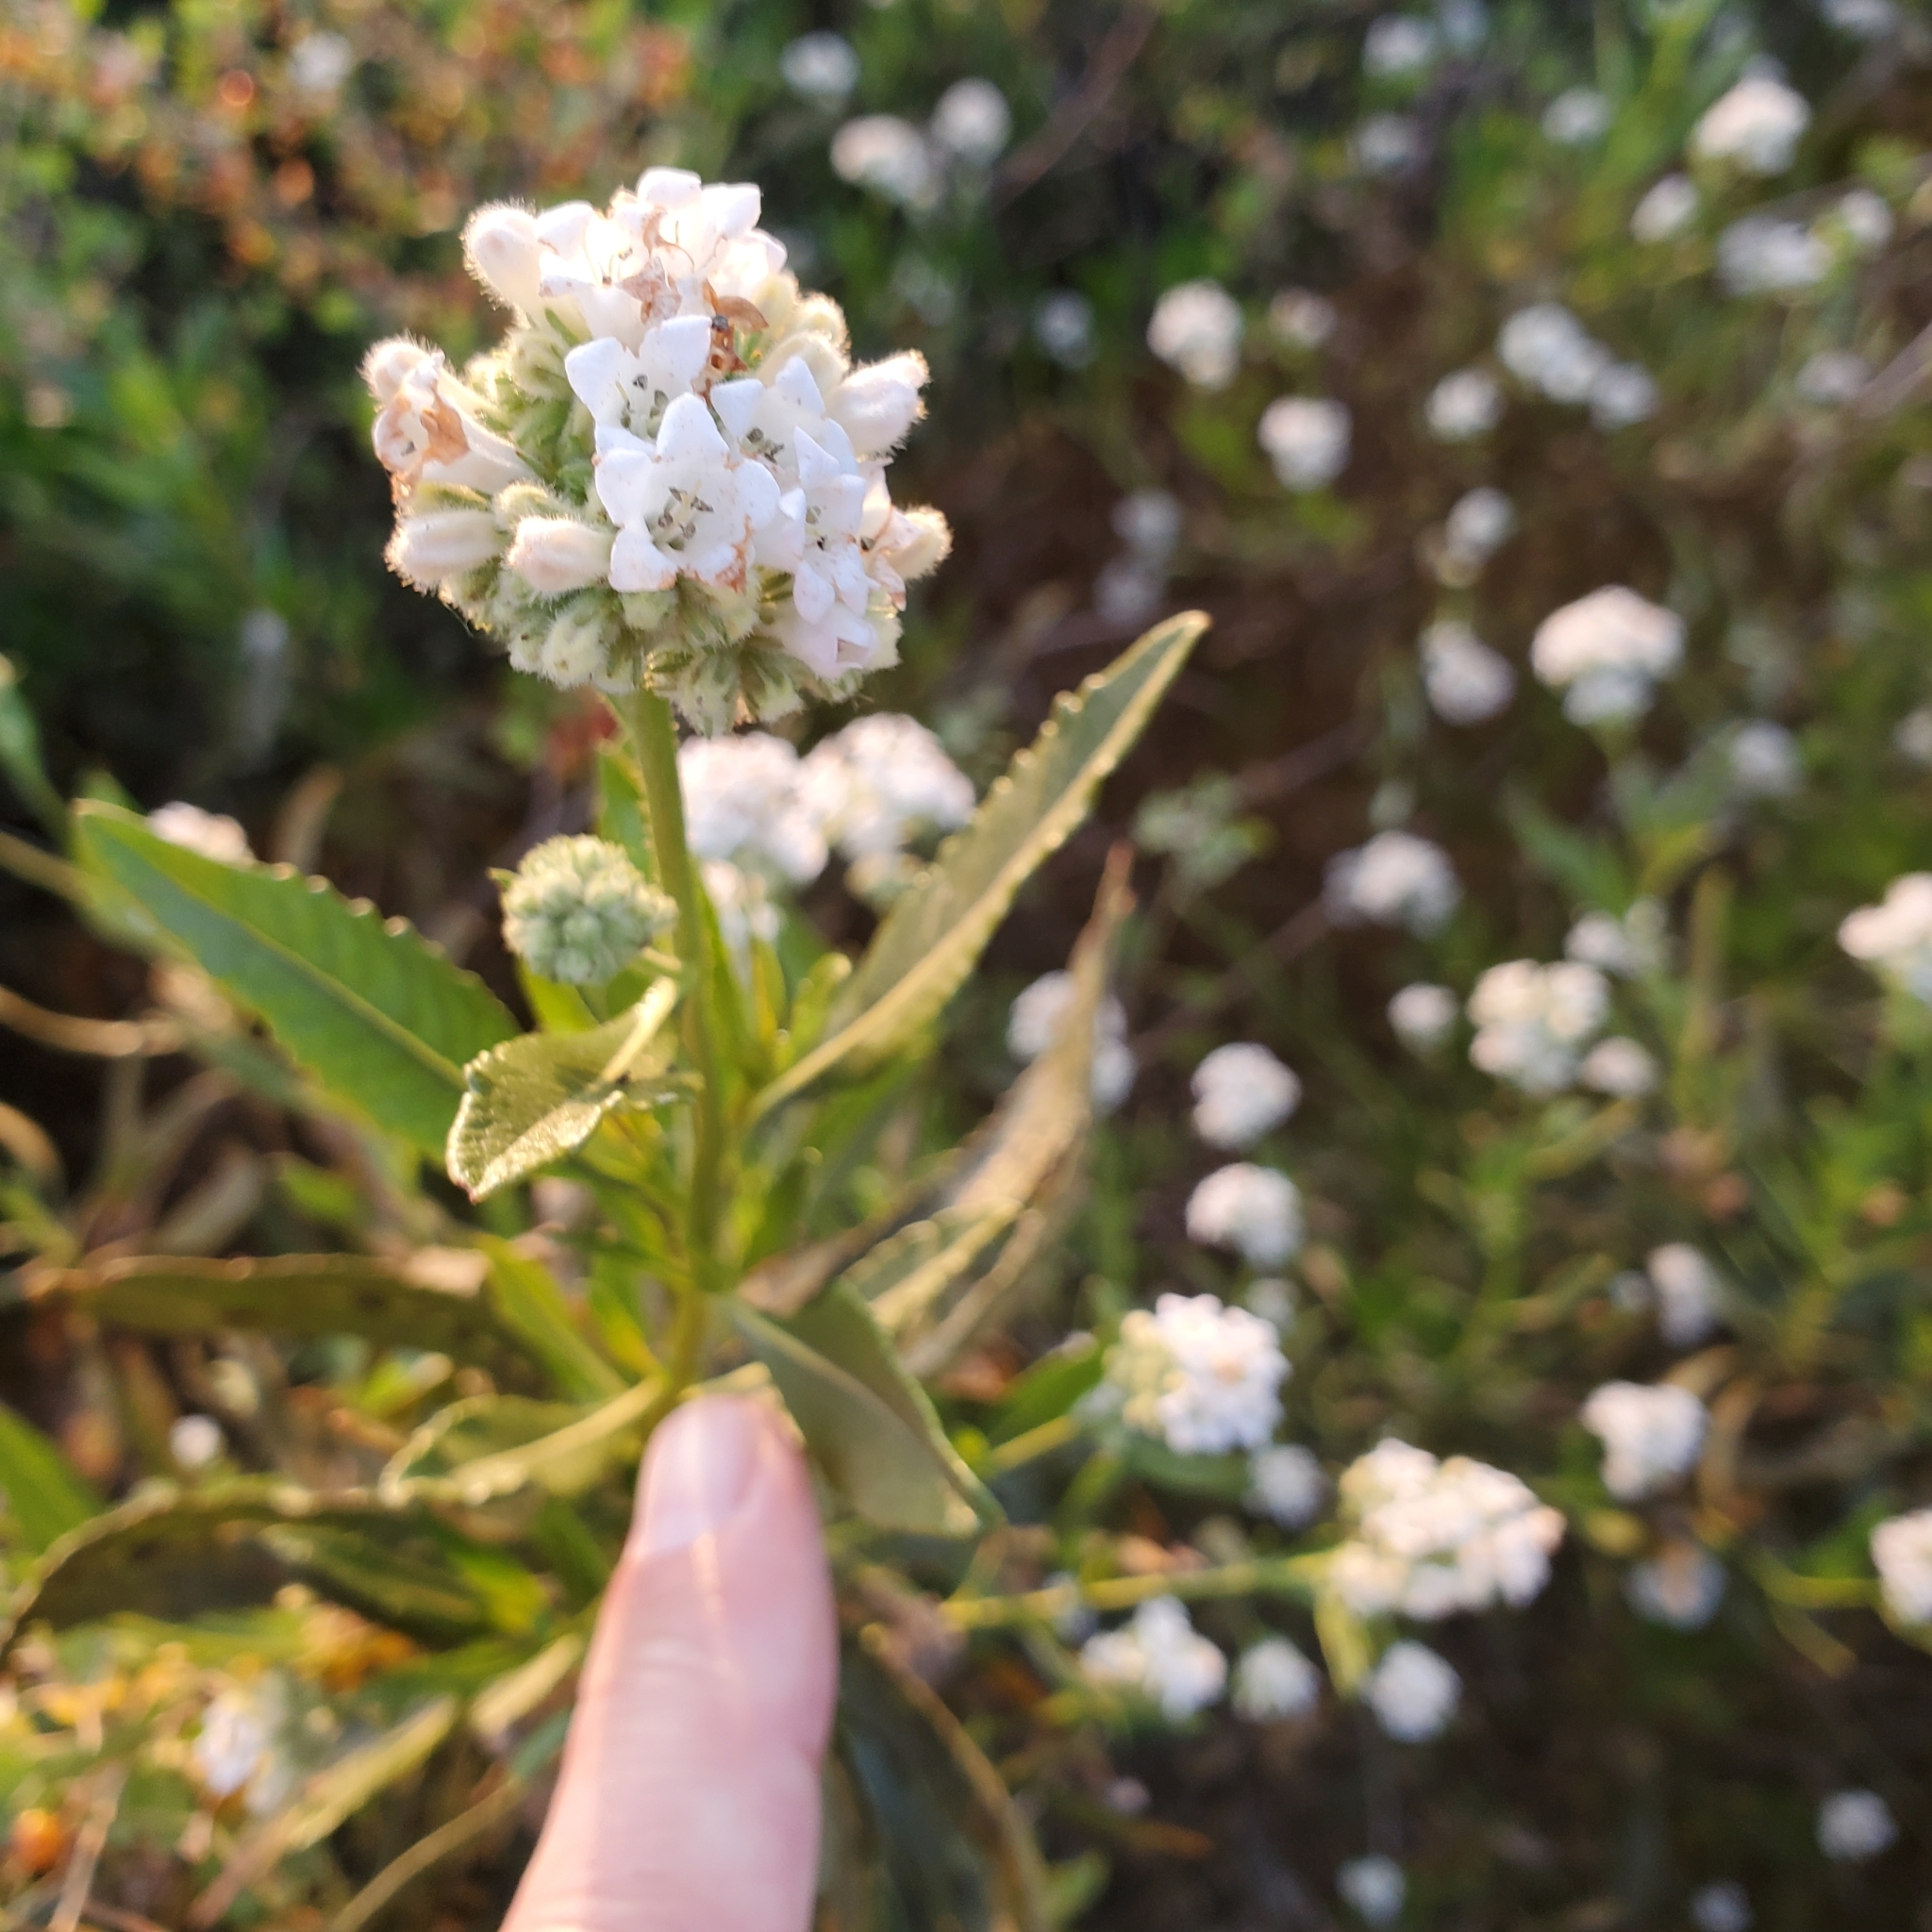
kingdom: Plantae
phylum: Tracheophyta
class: Magnoliopsida
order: Boraginales
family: Namaceae
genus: Eriodictyon
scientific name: Eriodictyon trichocalyx
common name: Hairy yerba-santa
